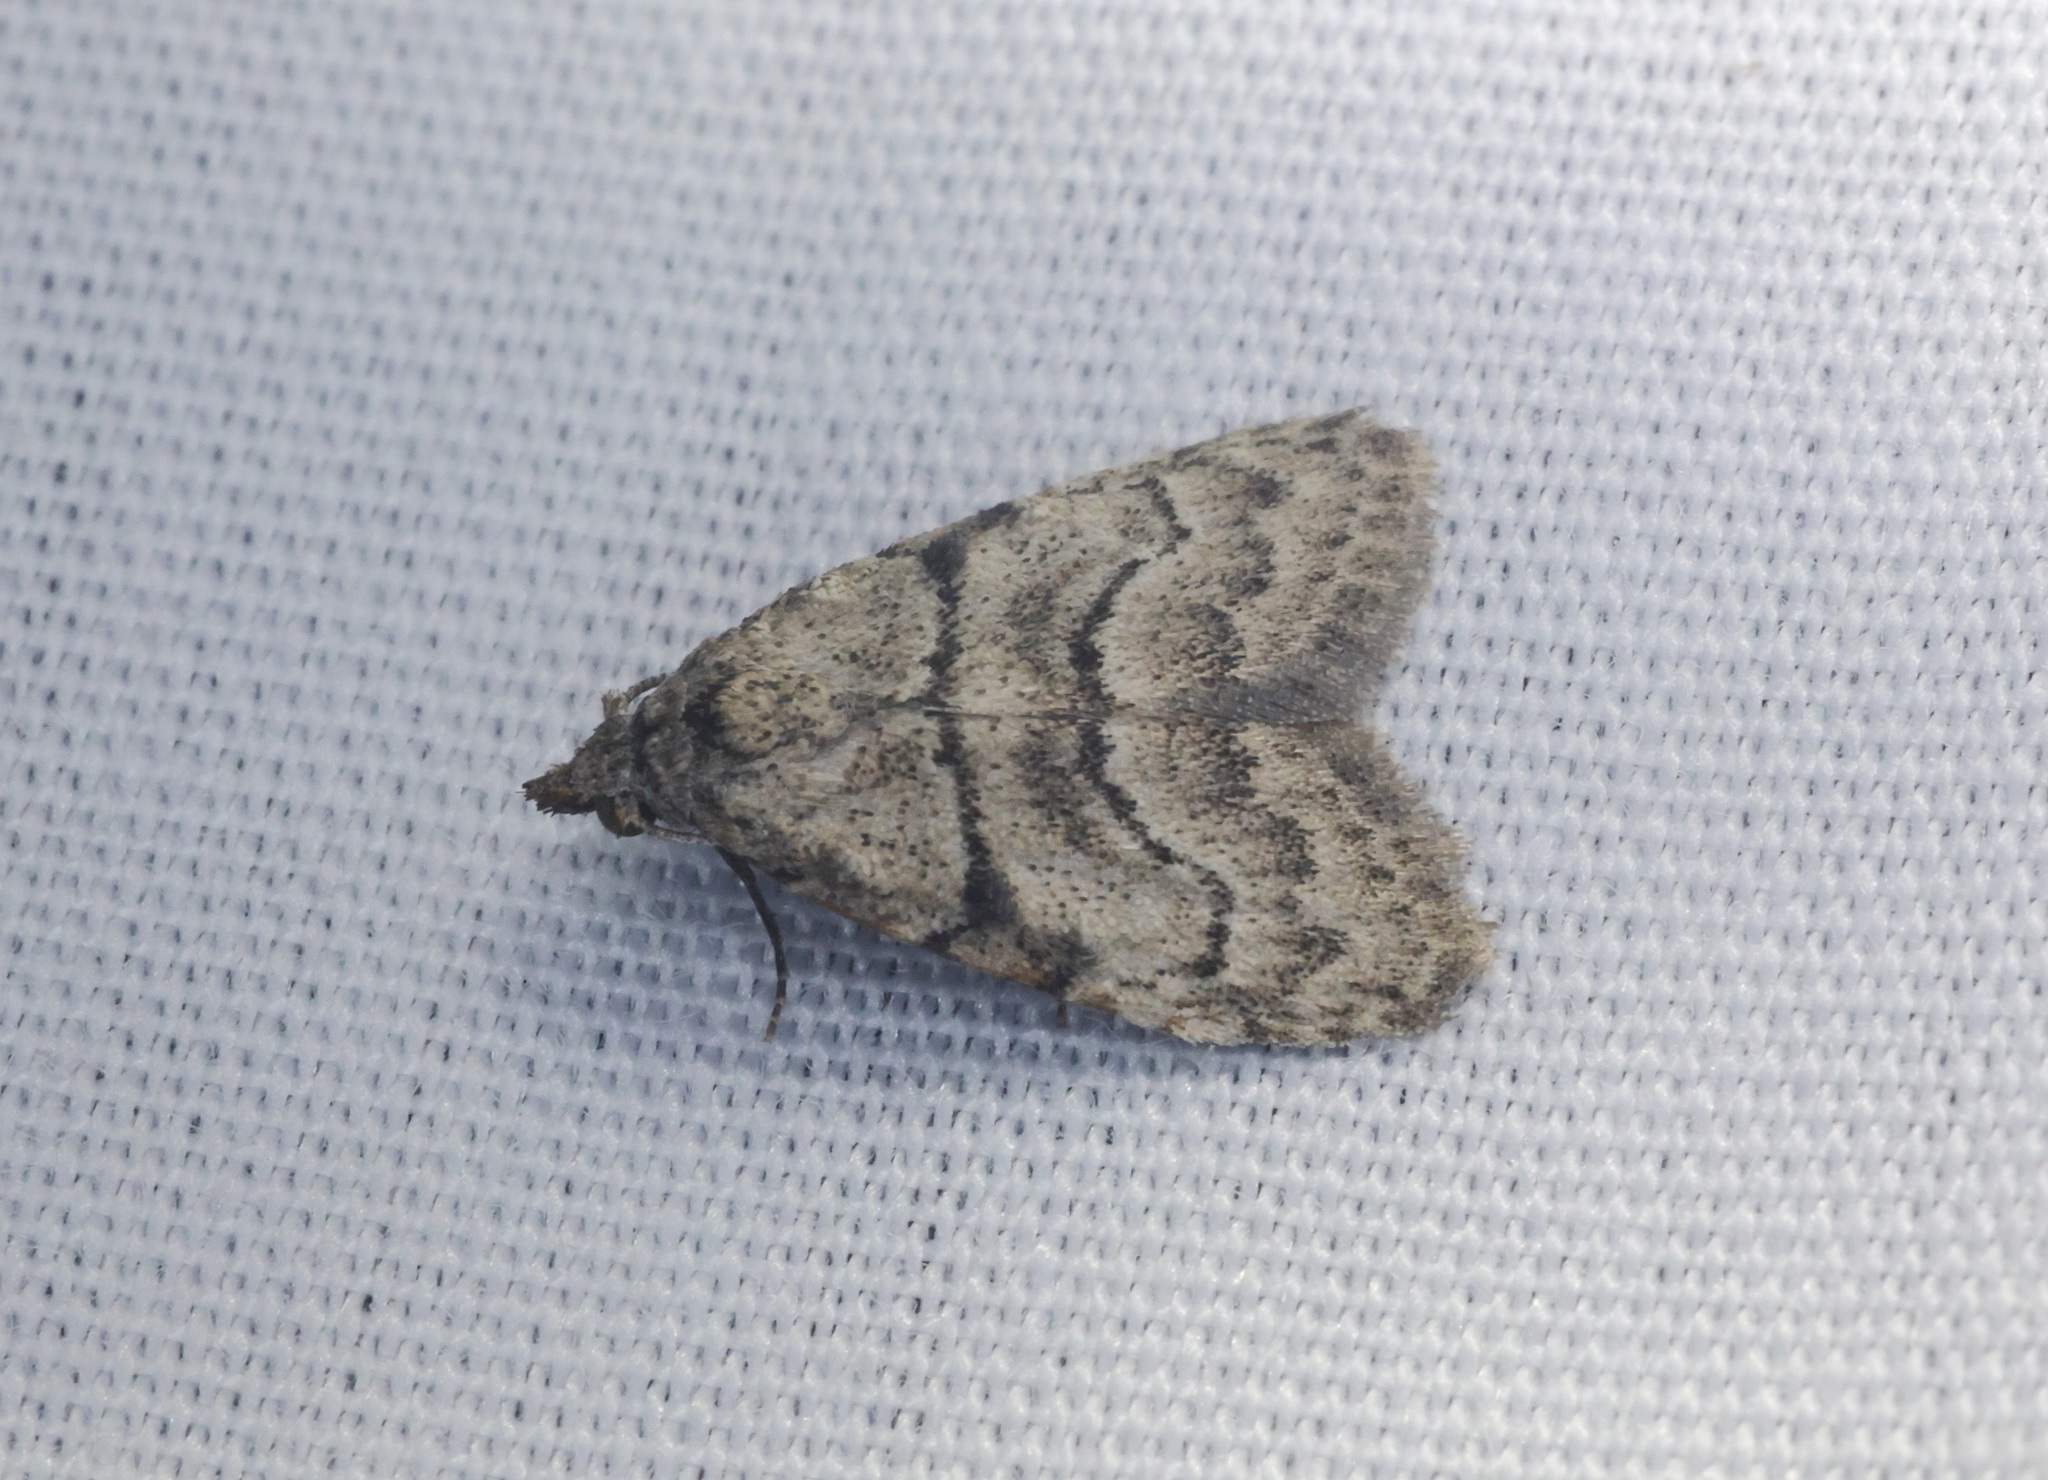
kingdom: Animalia
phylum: Arthropoda
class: Insecta
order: Lepidoptera
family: Nolidae
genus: Inouenola
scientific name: Inouenola pallescens
